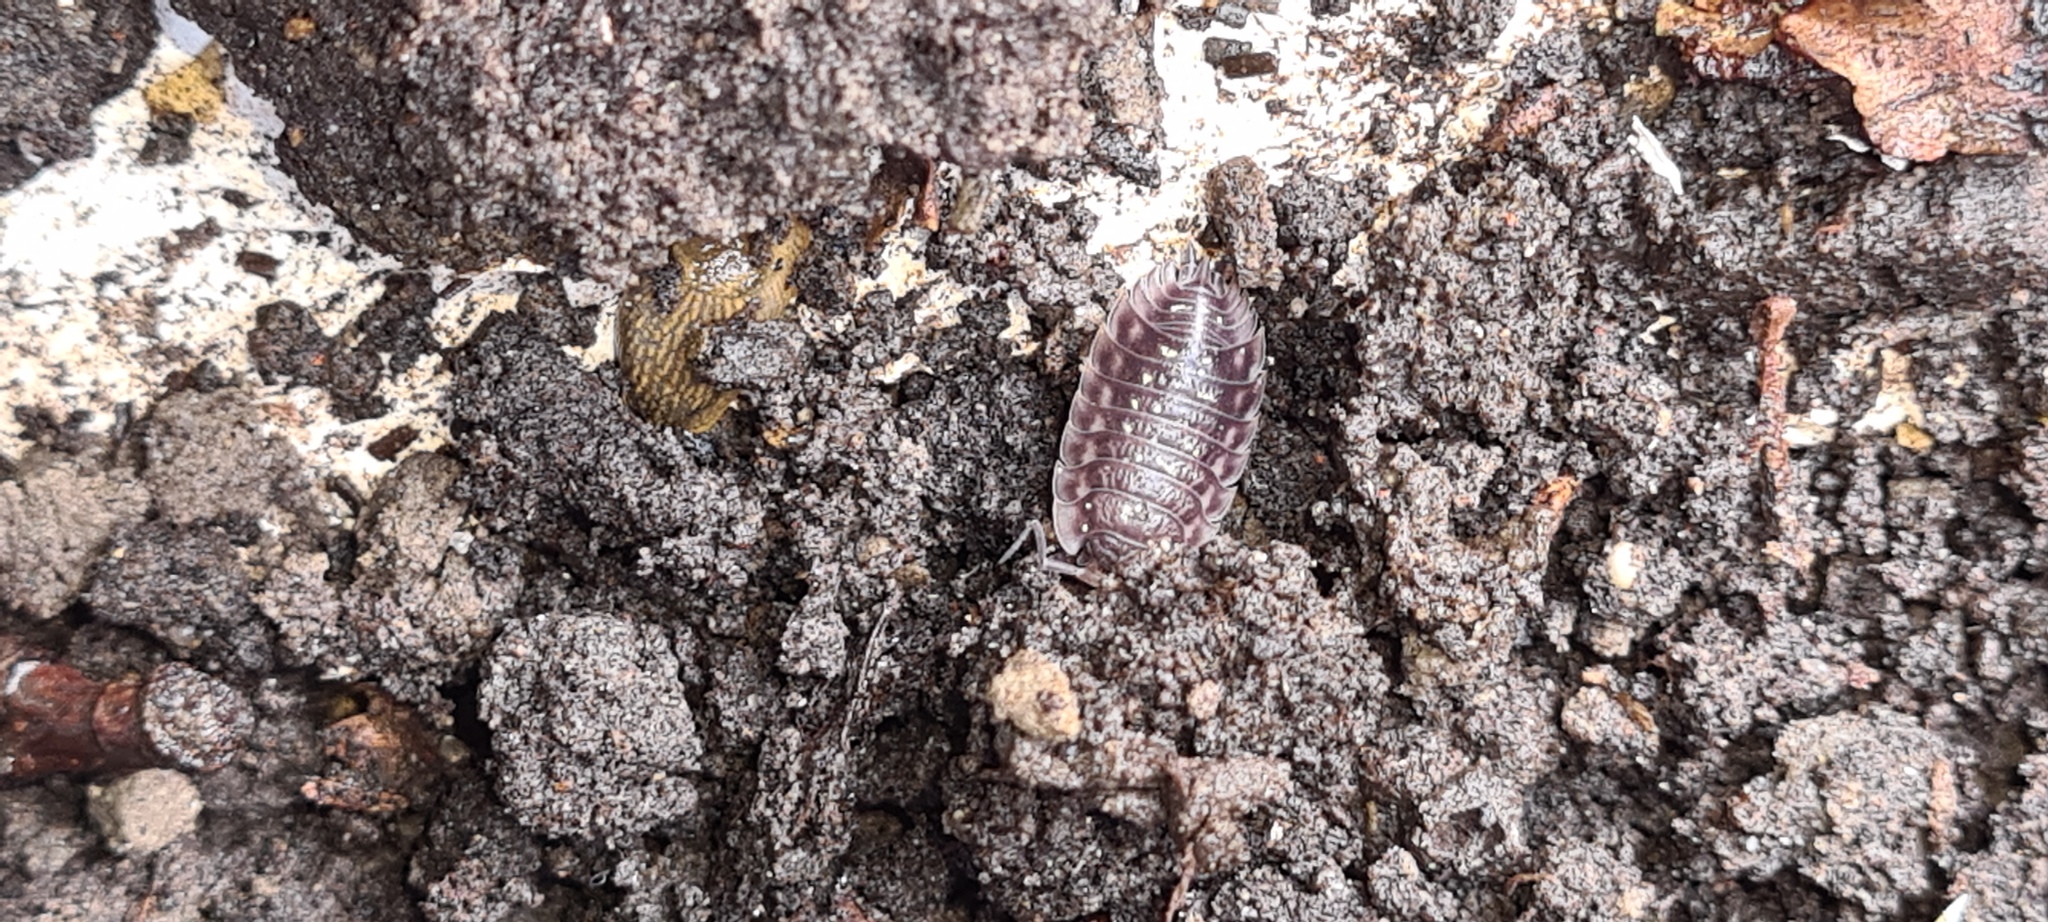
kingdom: Animalia
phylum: Arthropoda
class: Malacostraca
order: Isopoda
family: Oniscidae
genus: Oniscus
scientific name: Oniscus asellus
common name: Common shiny woodlouse
